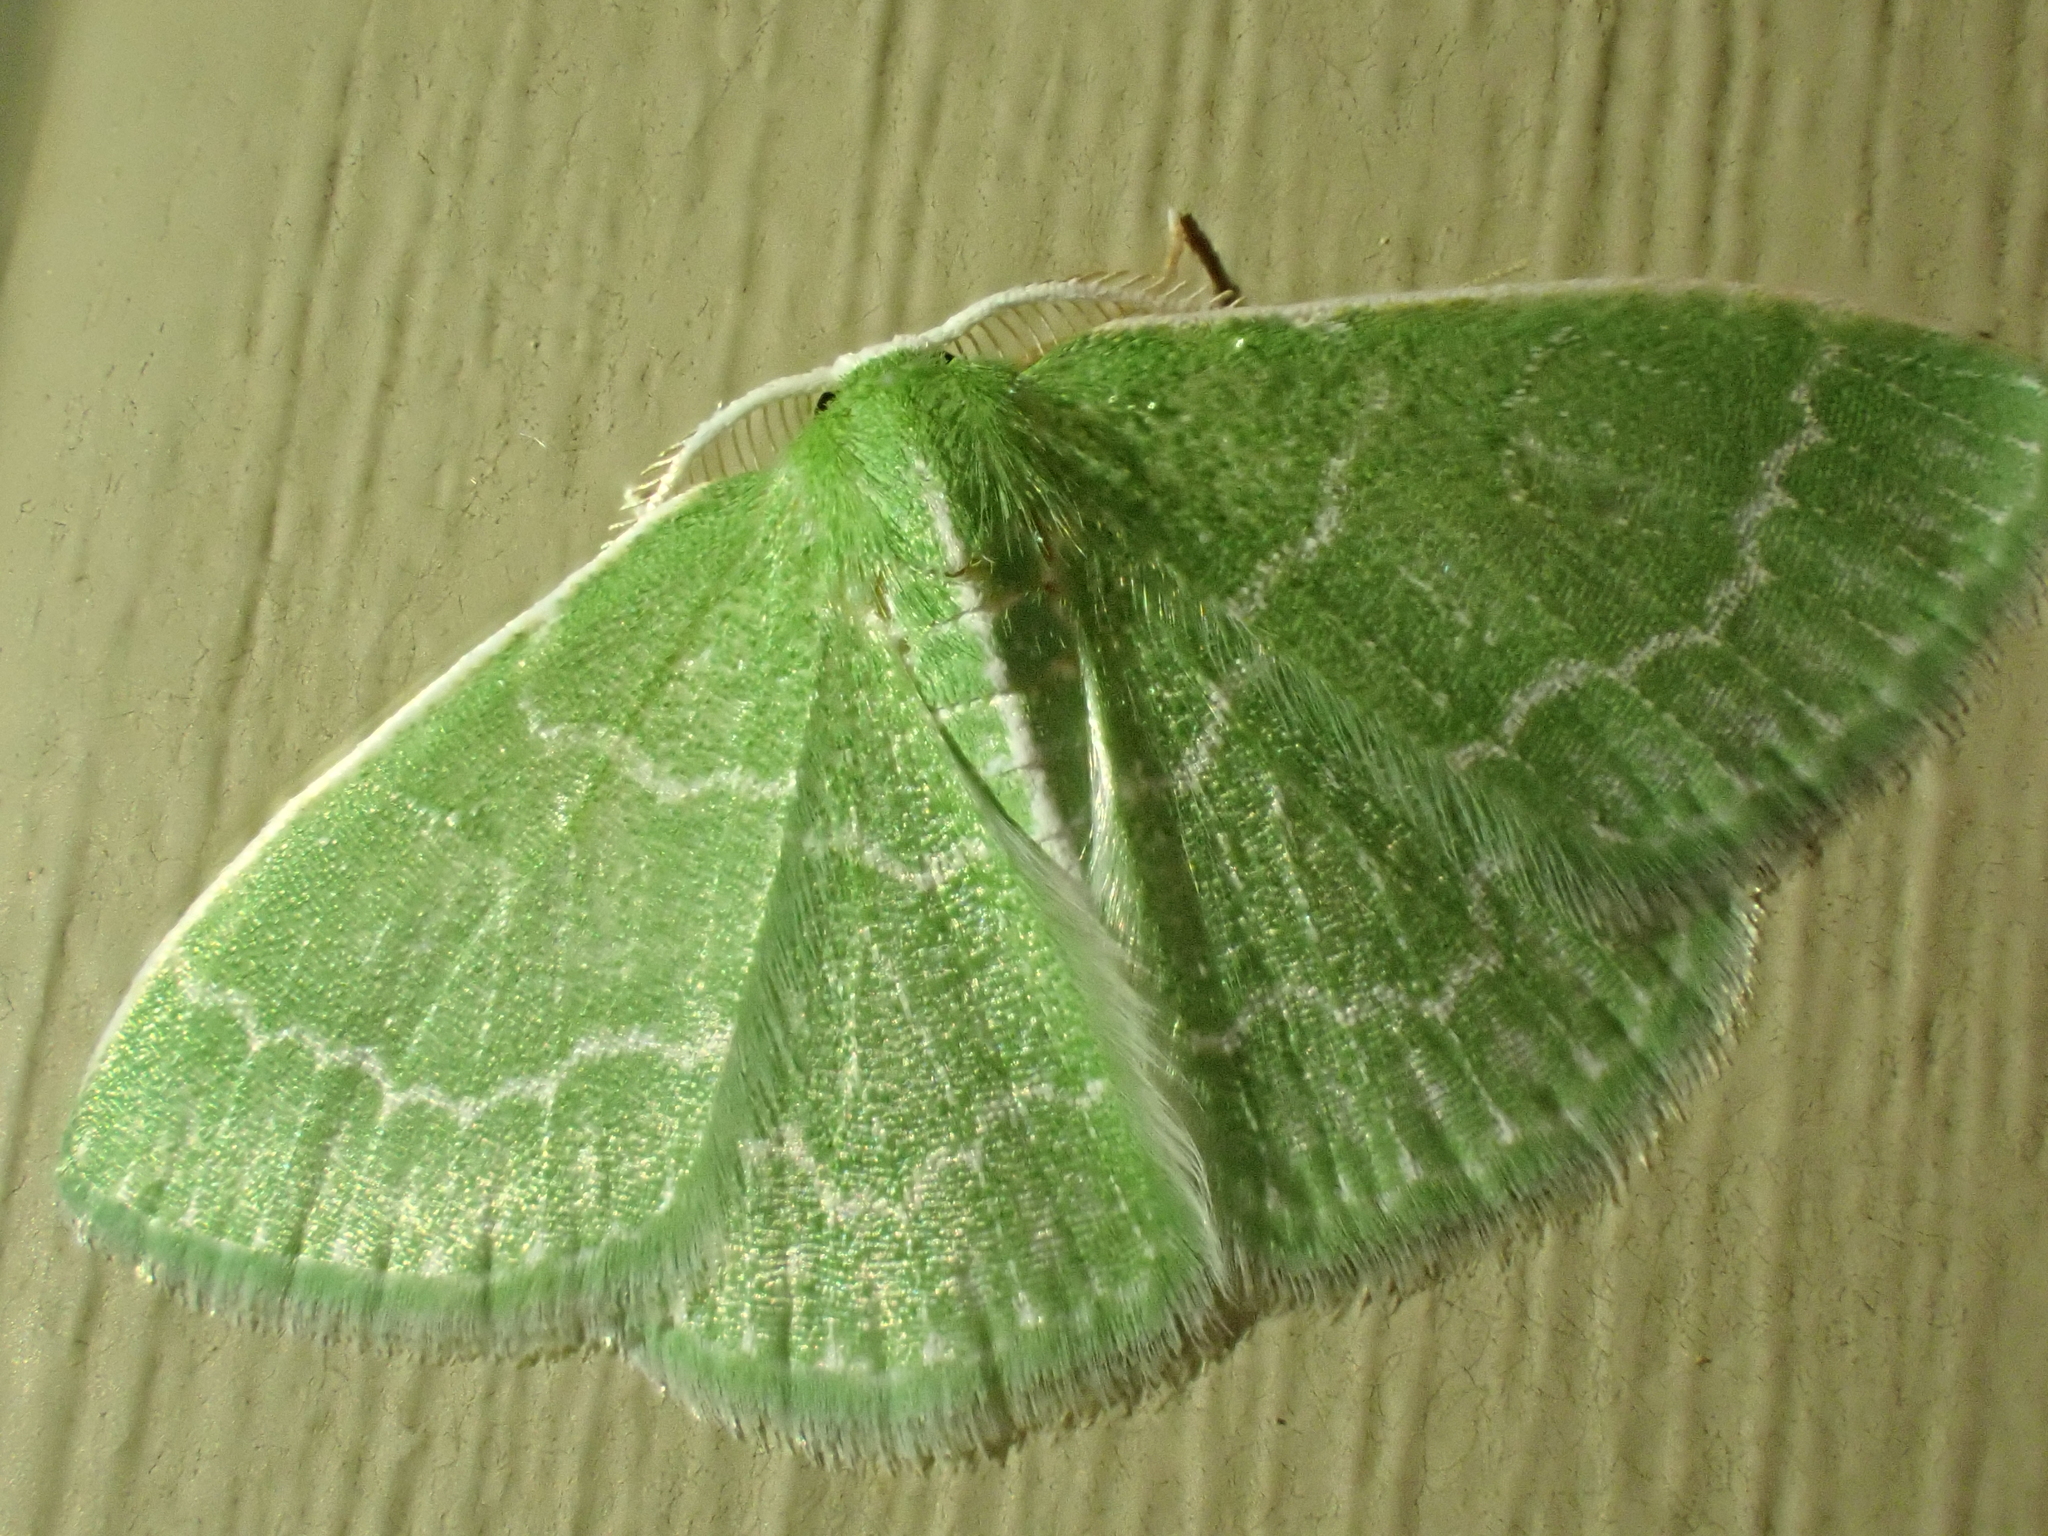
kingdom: Animalia
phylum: Arthropoda
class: Insecta
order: Lepidoptera
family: Geometridae
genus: Synchlora
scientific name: Synchlora aerata
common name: Wavy-lined emerald
